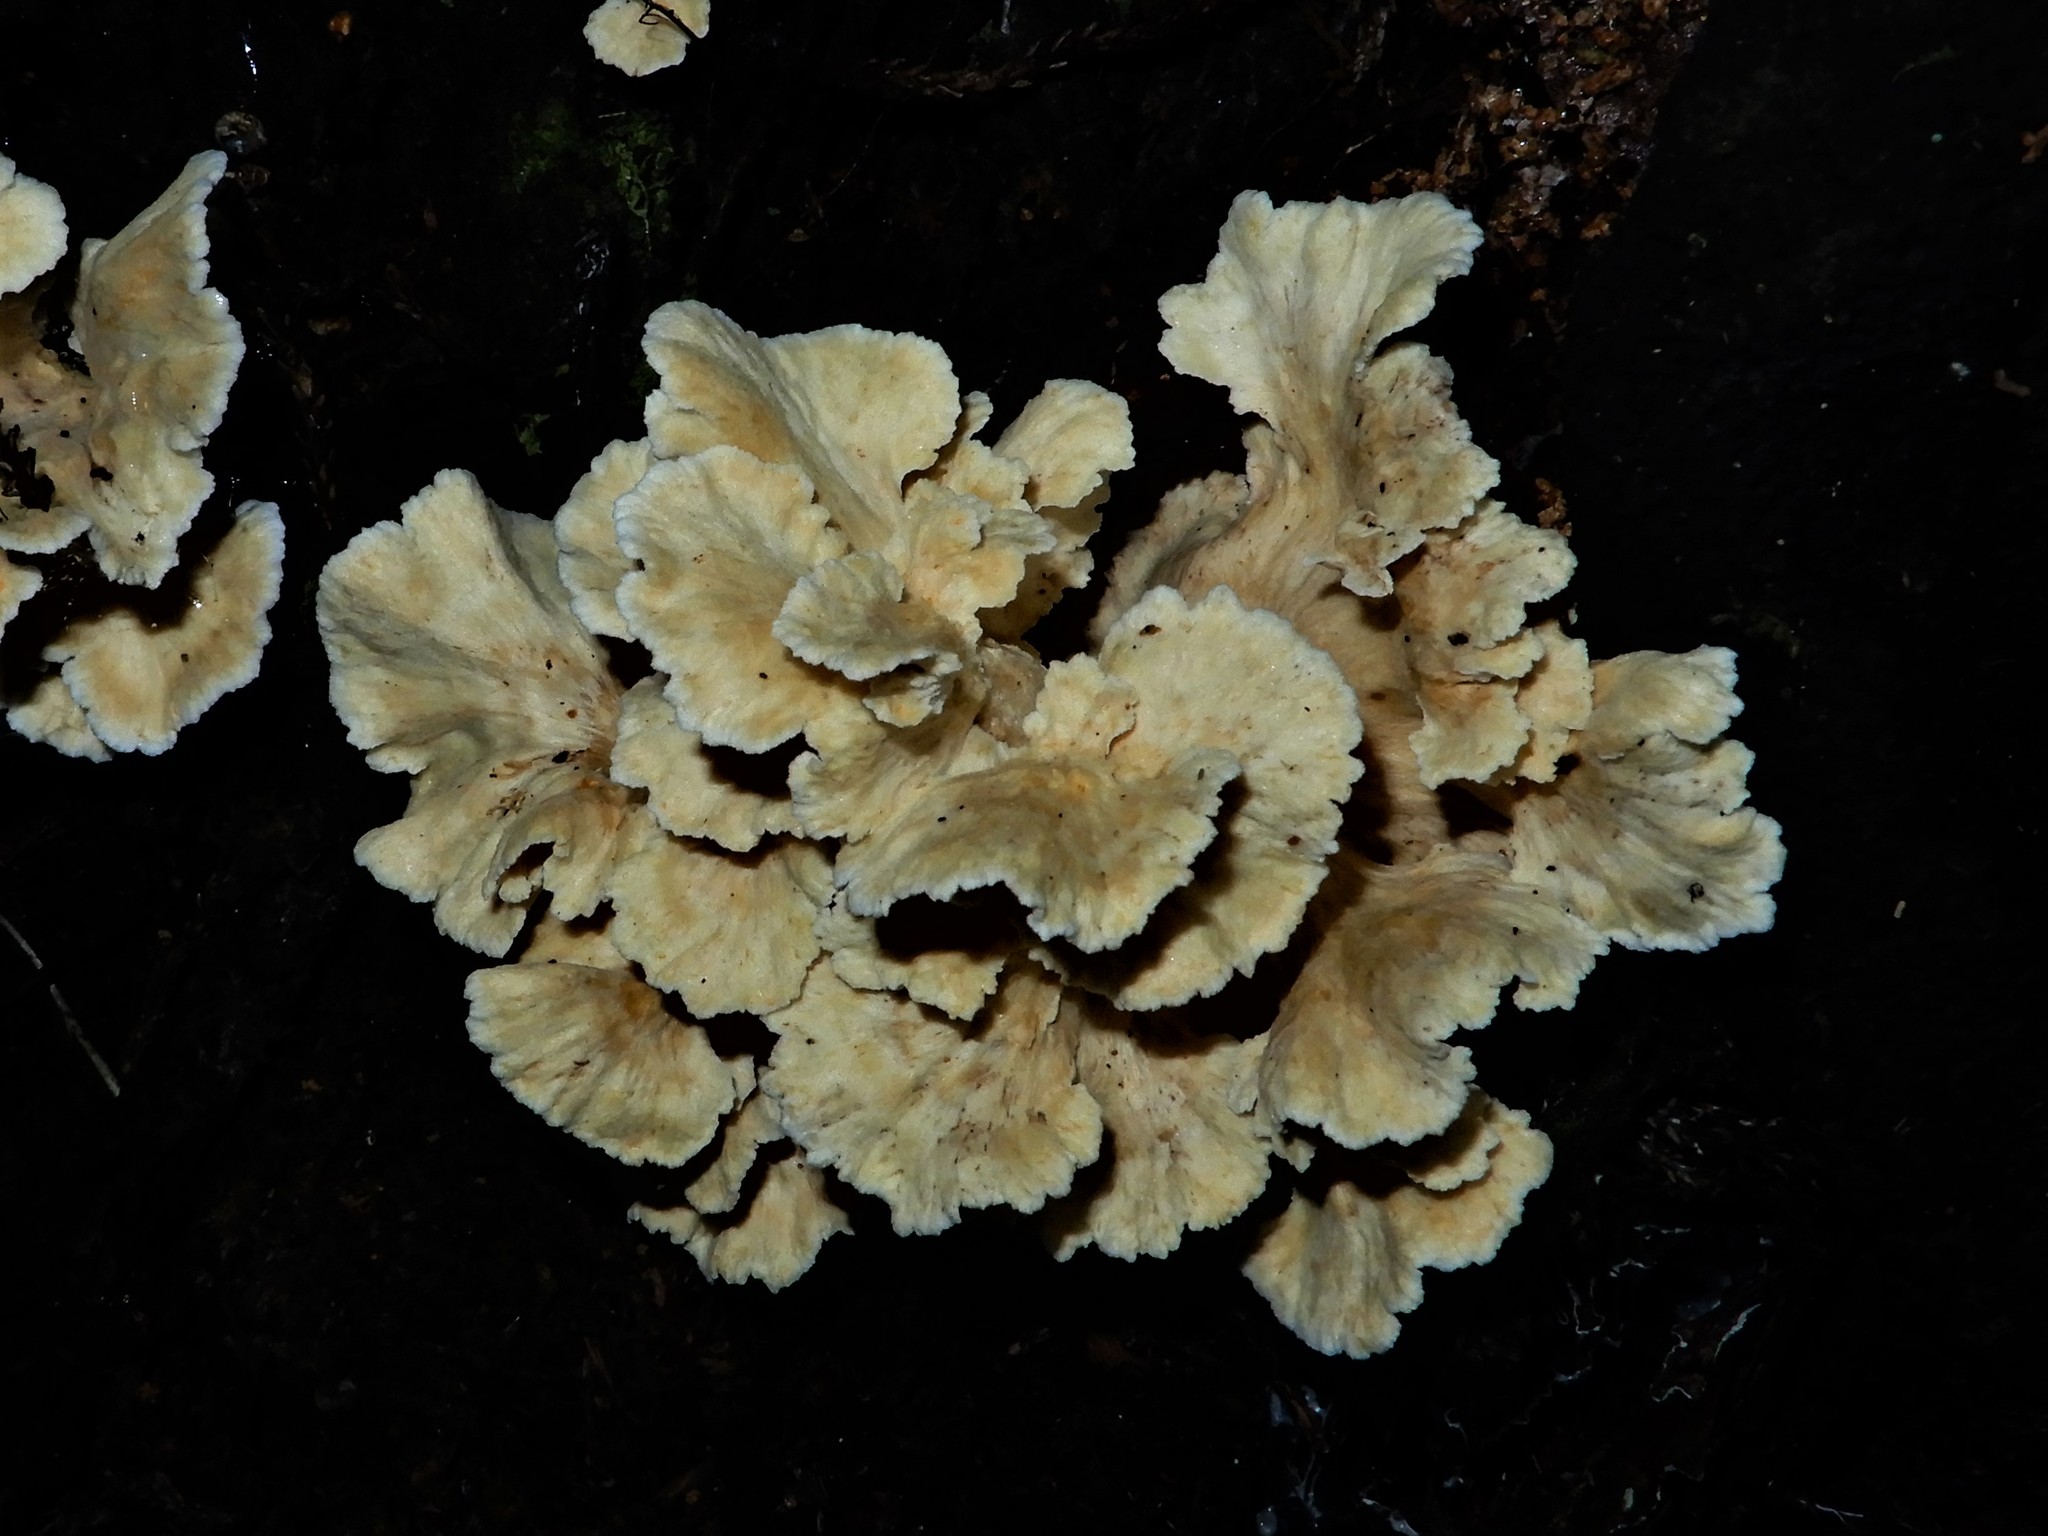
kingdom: Fungi
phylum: Basidiomycota
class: Agaricomycetes
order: Amylocorticiales
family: Amylocorticiaceae
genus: Podoserpula
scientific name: Podoserpula
